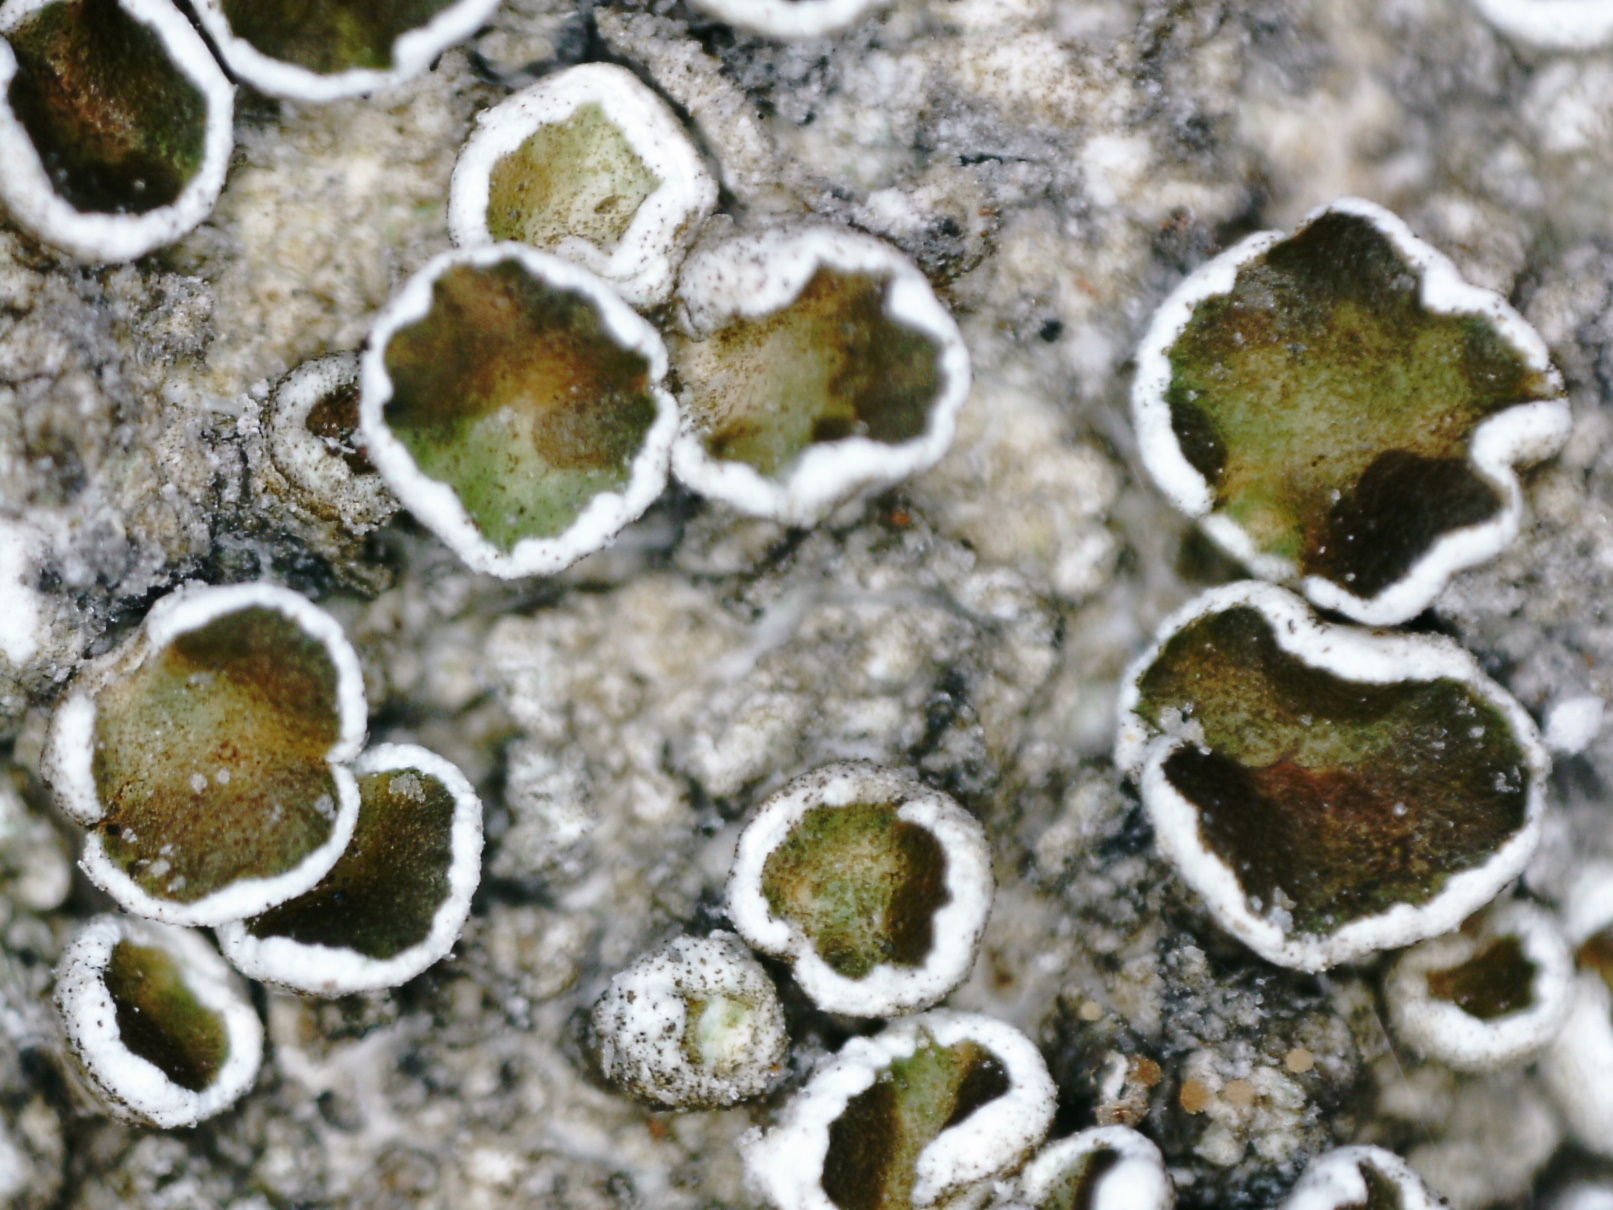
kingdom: Fungi
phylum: Ascomycota
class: Lecanoromycetes
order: Lecanorales
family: Lecanoraceae
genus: Lecanora
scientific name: Lecanora albella
